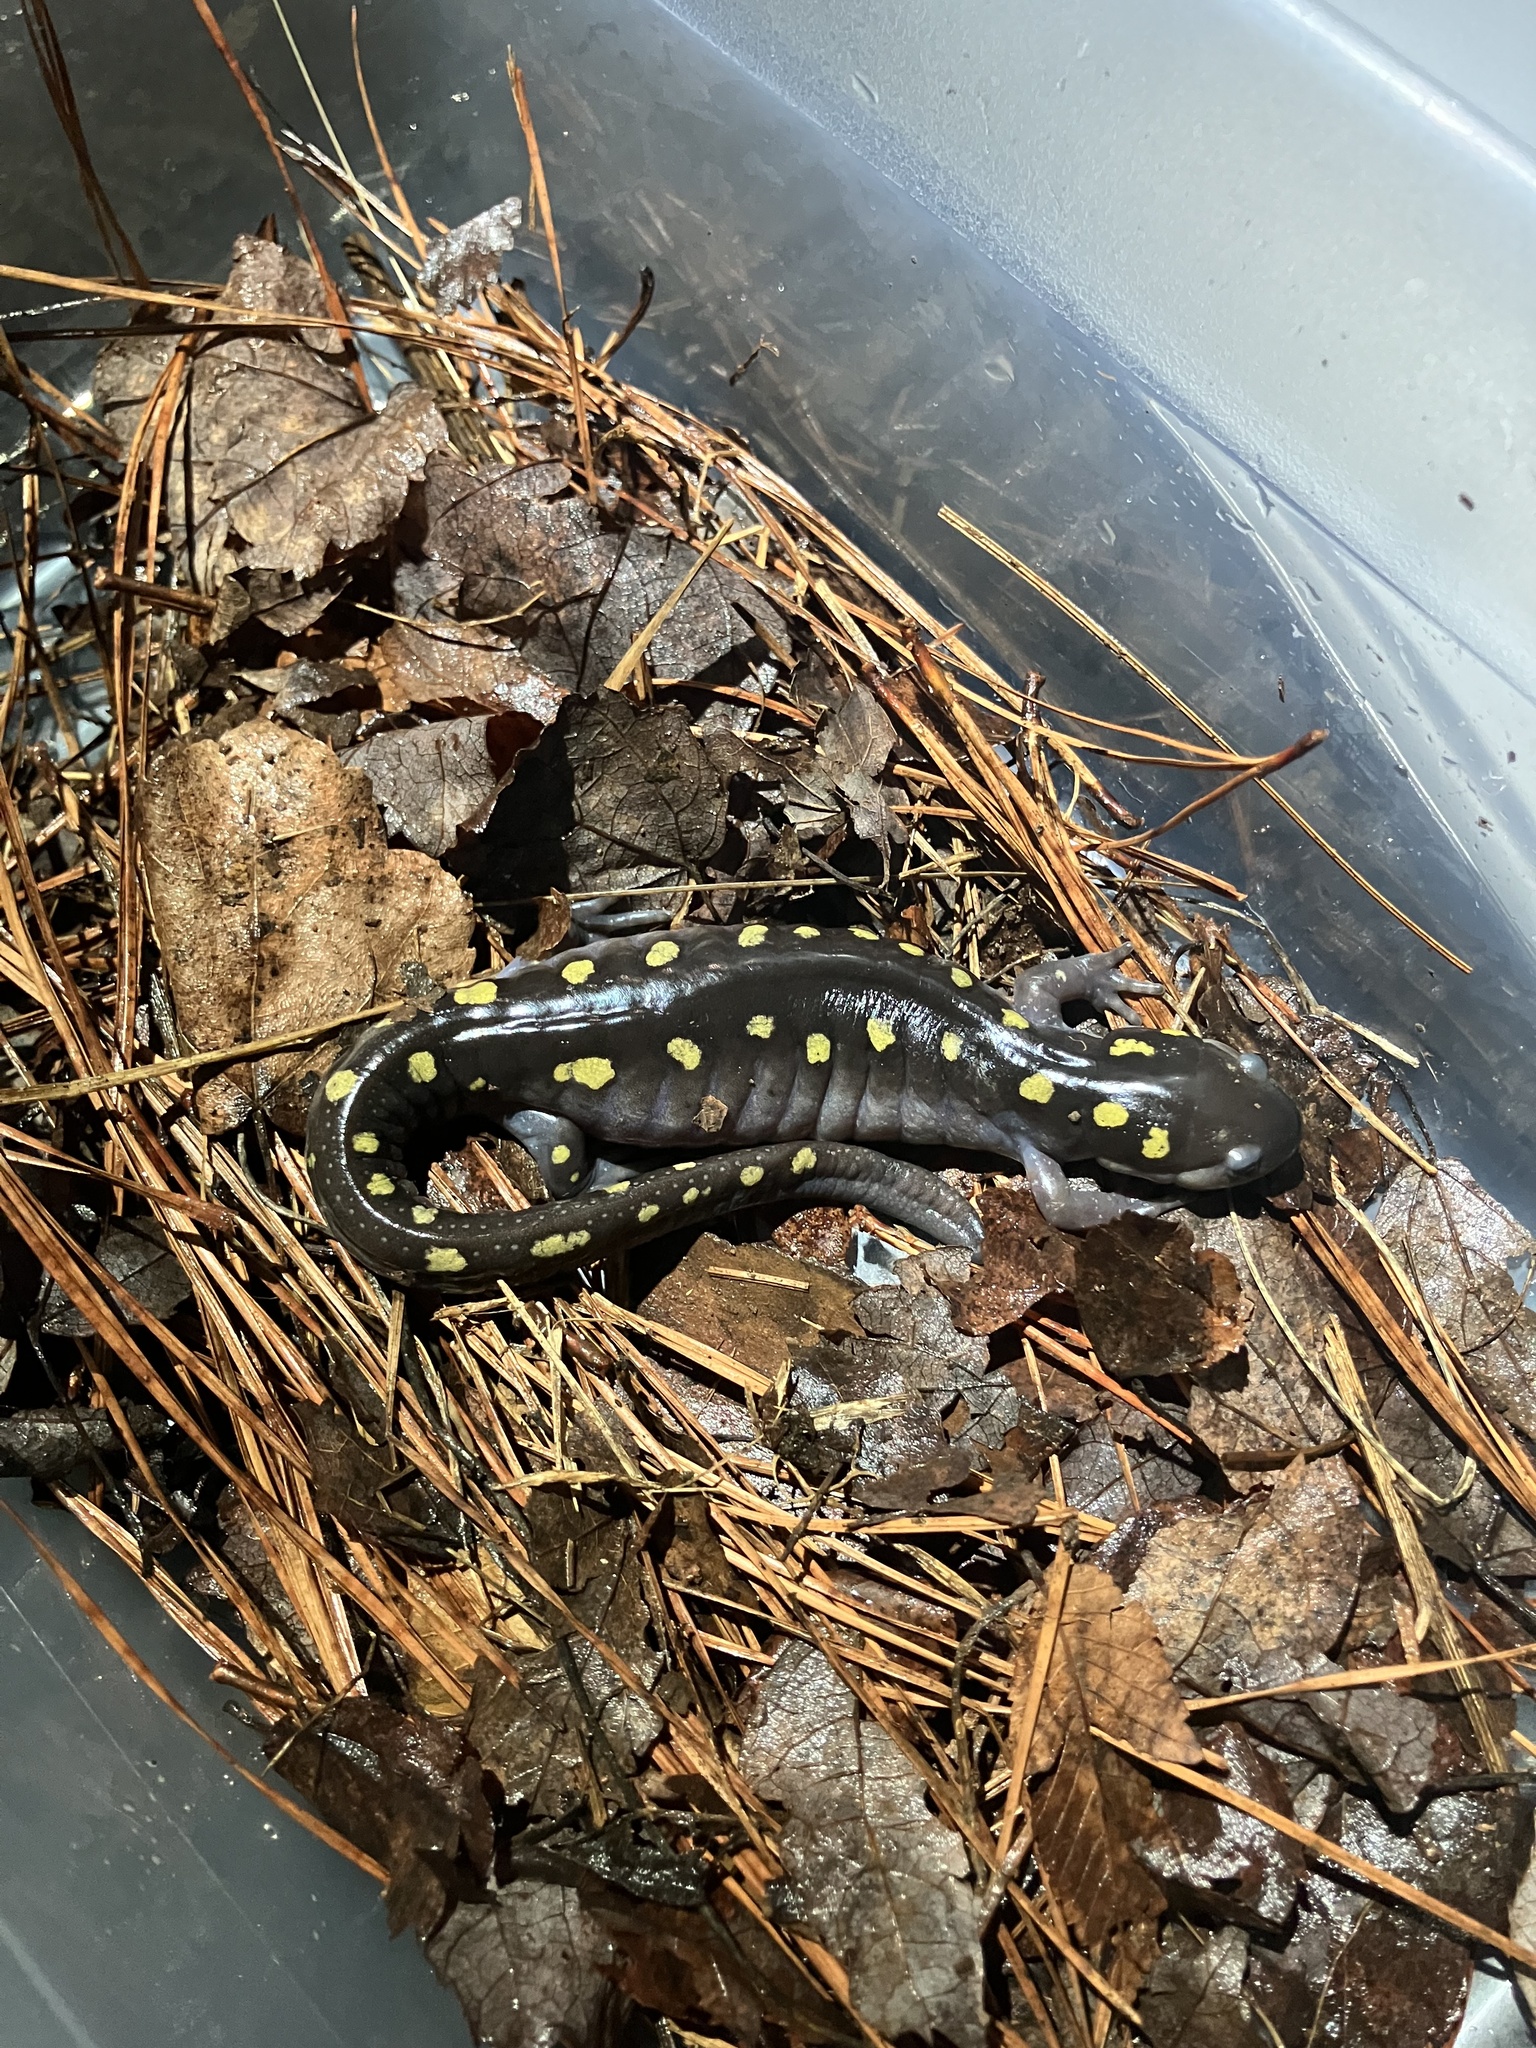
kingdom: Animalia
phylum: Chordata
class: Amphibia
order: Caudata
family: Ambystomatidae
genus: Ambystoma
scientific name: Ambystoma maculatum
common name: Spotted salamander
